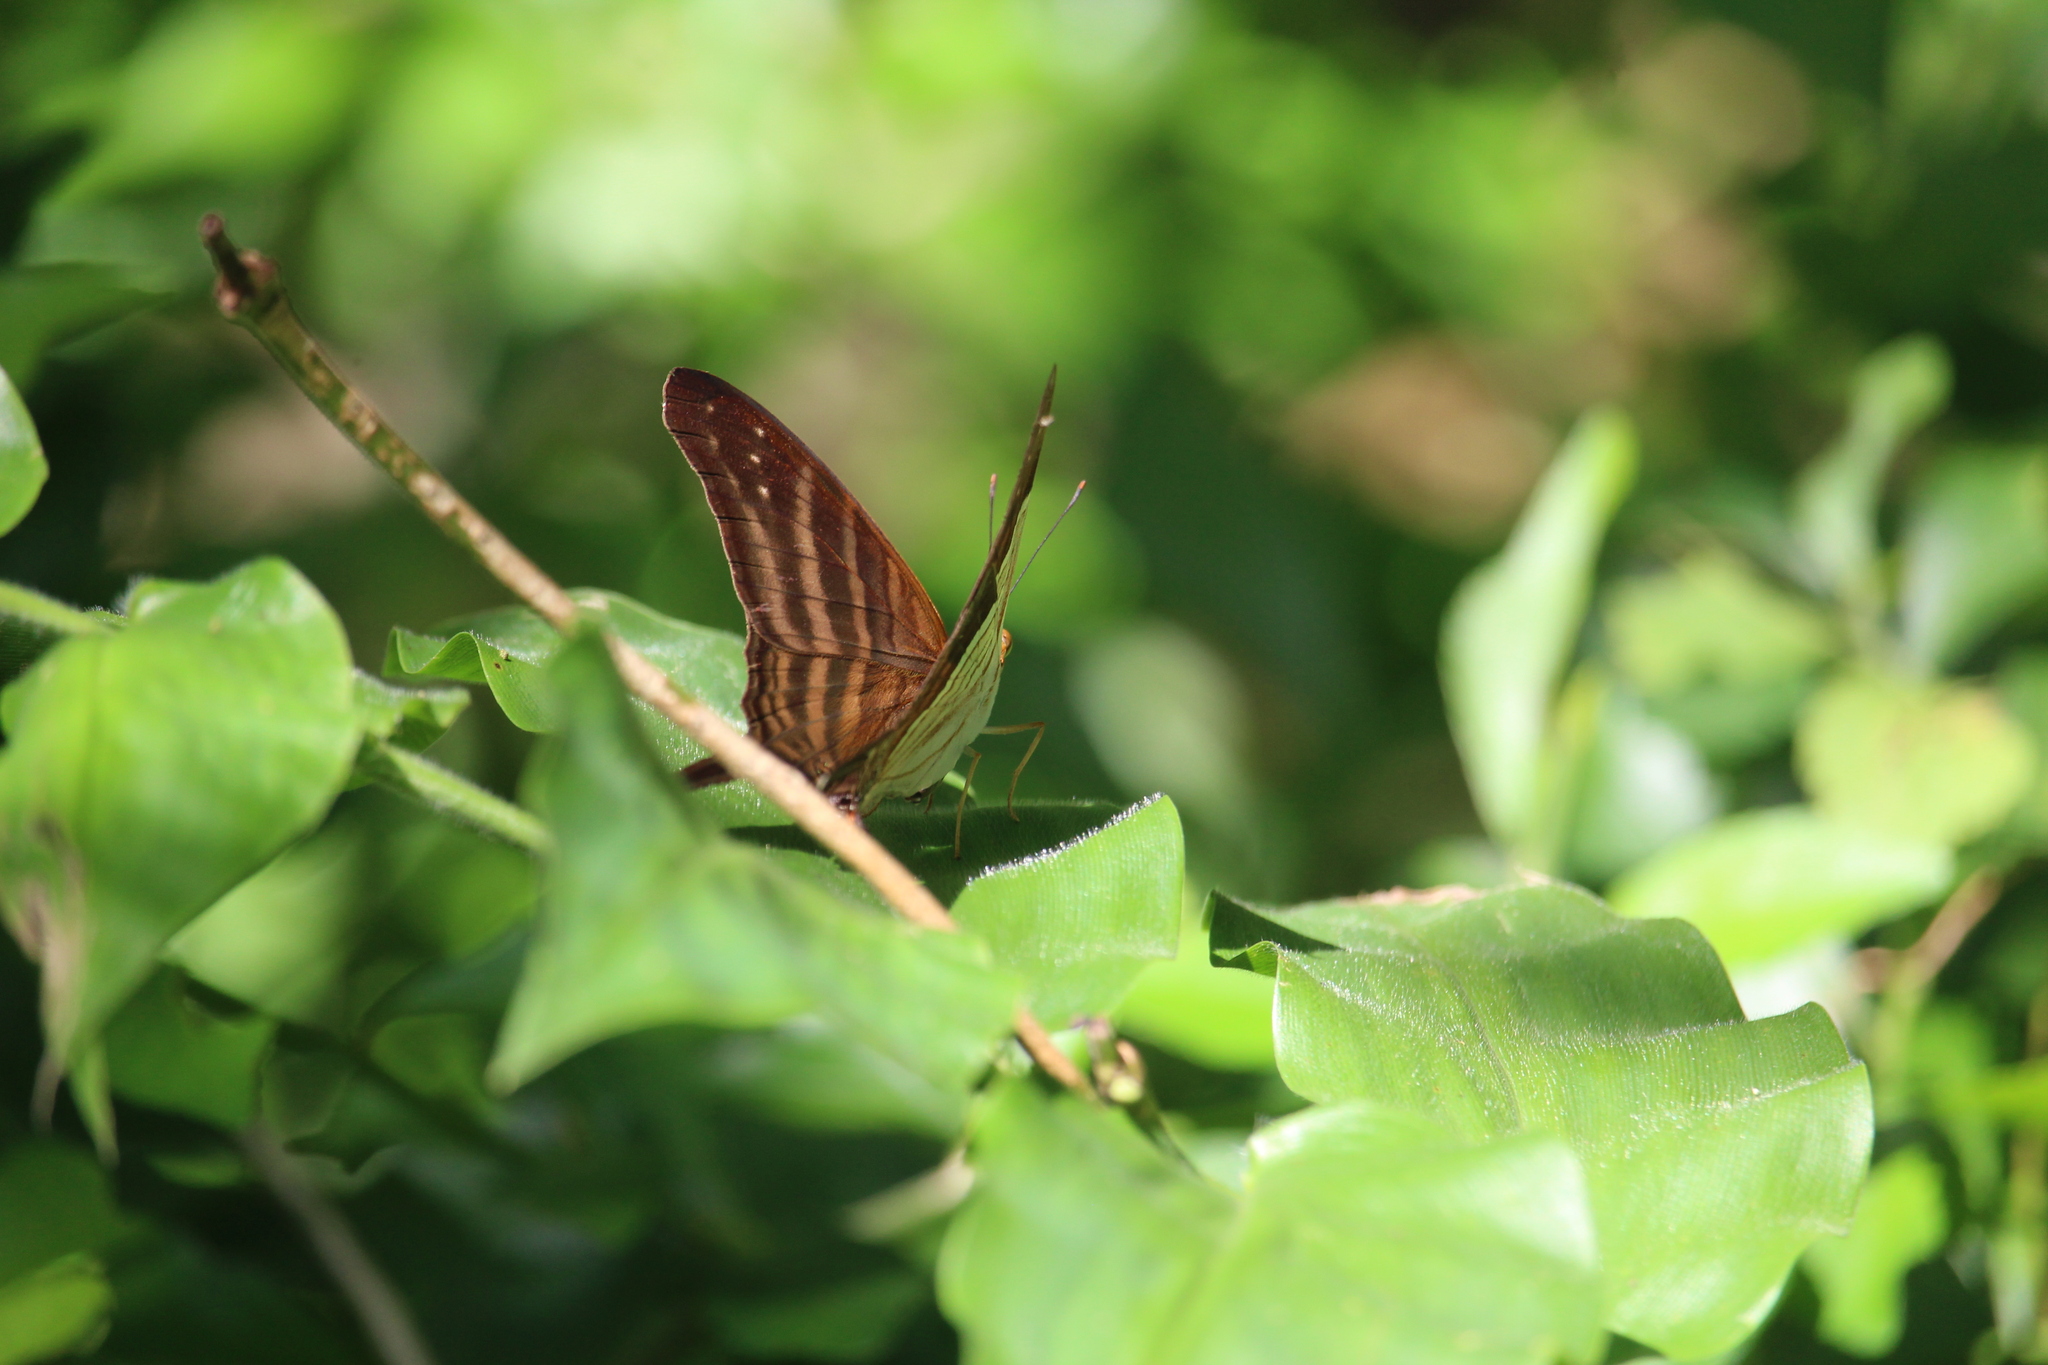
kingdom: Animalia
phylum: Arthropoda
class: Insecta
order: Lepidoptera
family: Nymphalidae
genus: Marpesia
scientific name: Marpesia chiron
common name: Many-banded daggerwing
